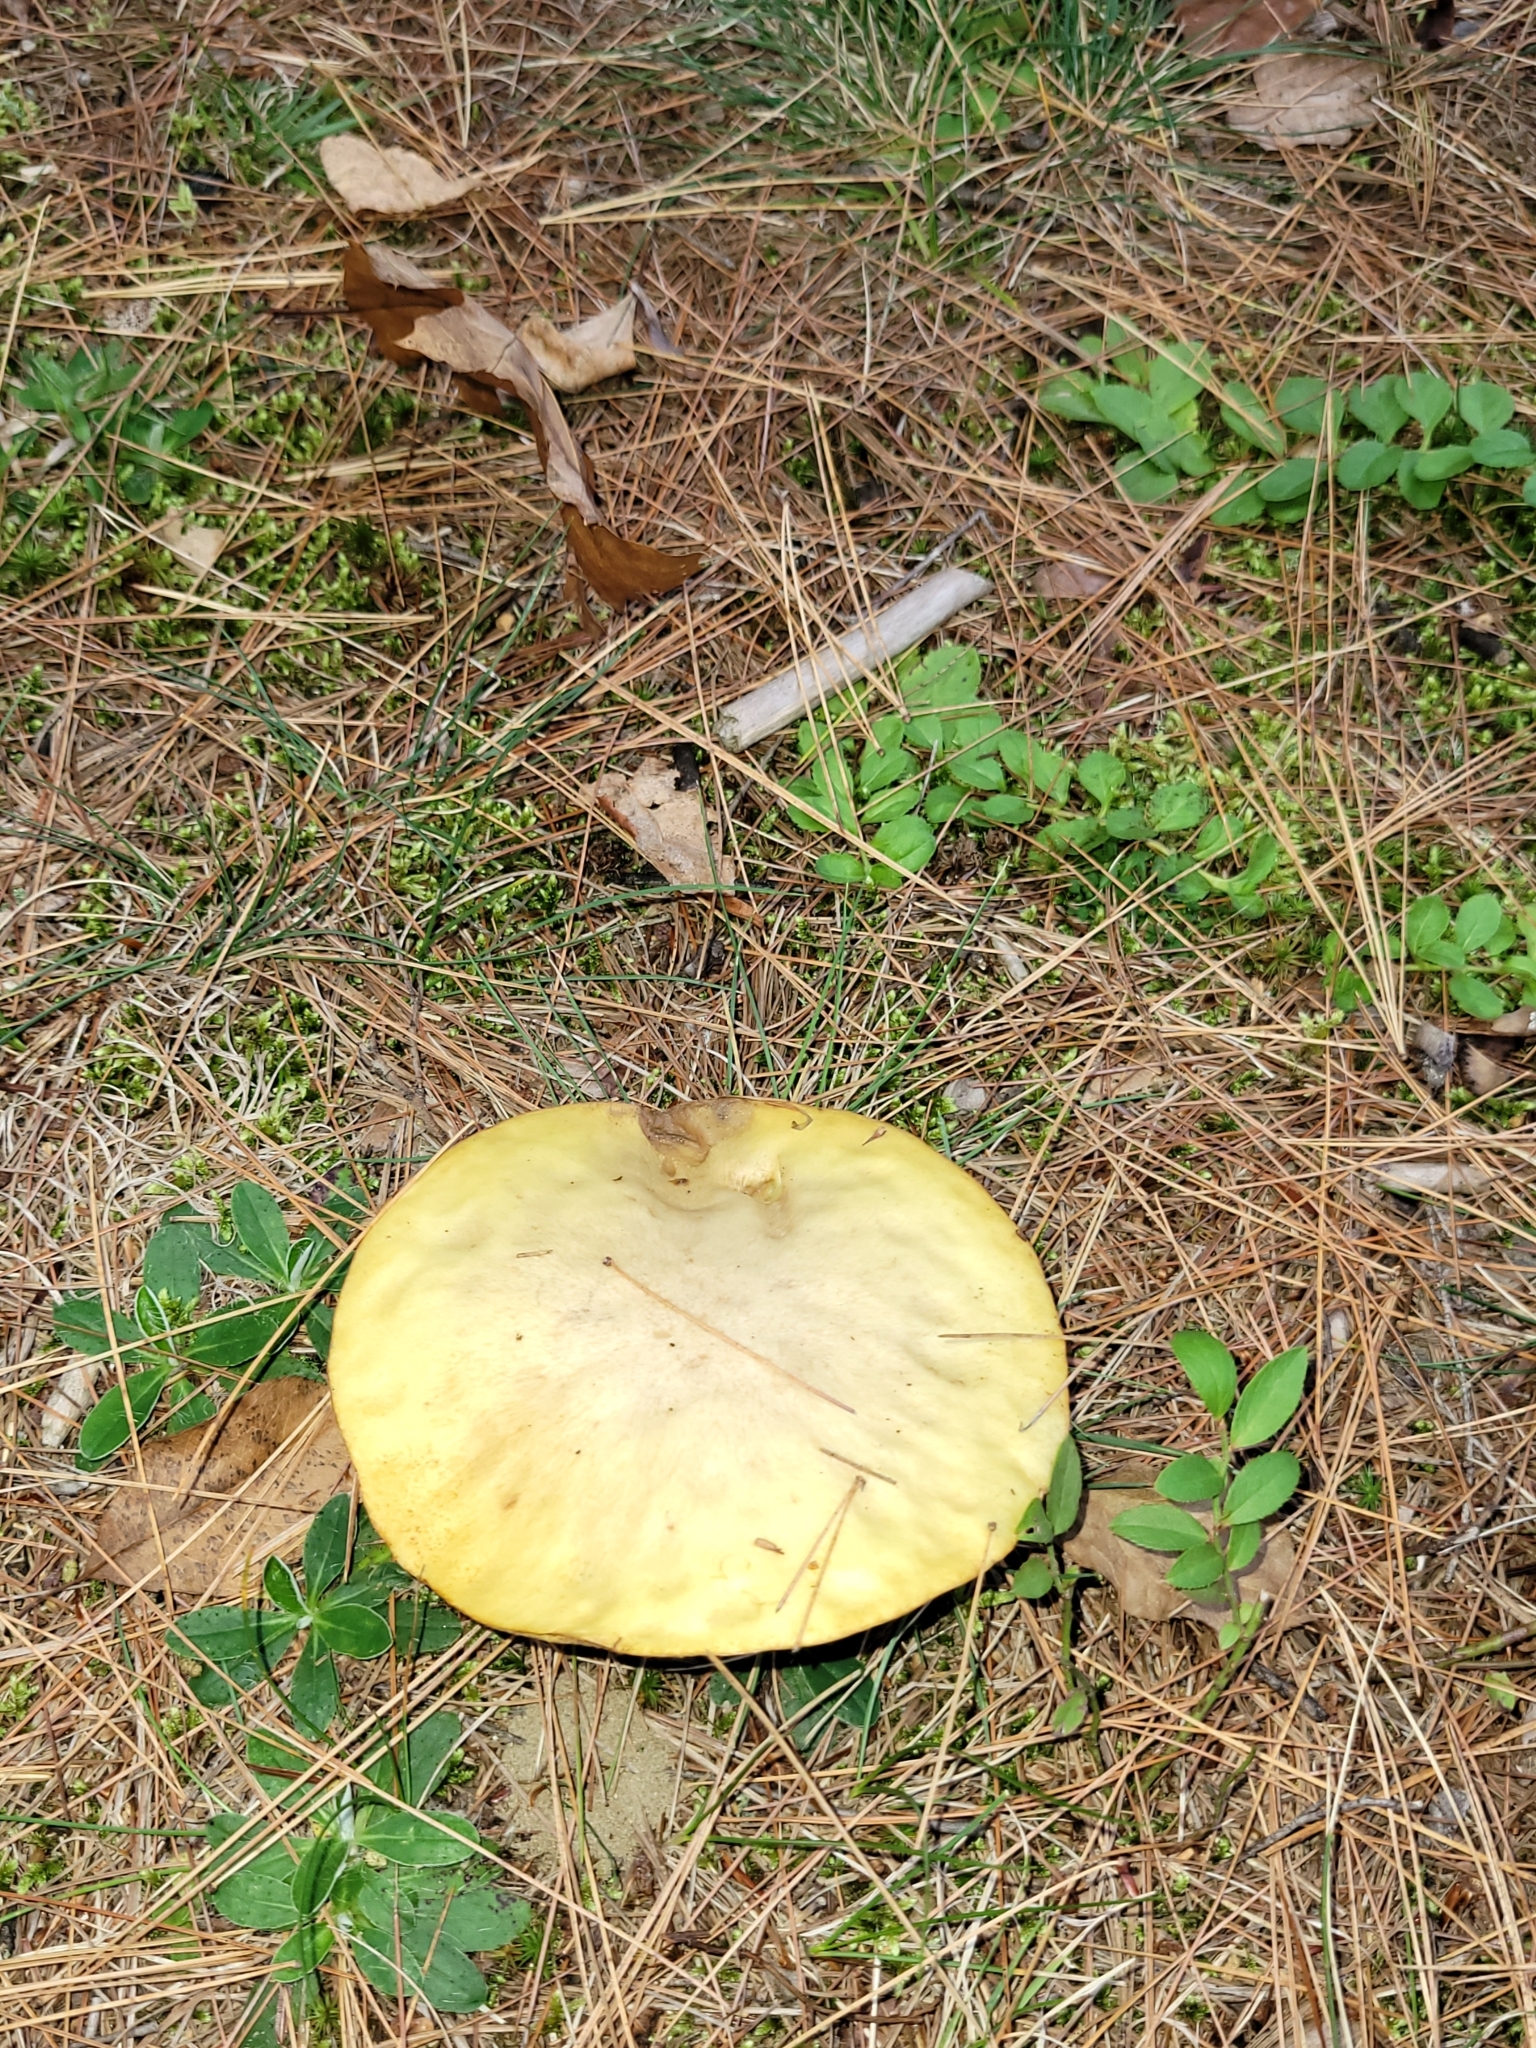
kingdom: Fungi
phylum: Basidiomycota
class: Agaricomycetes
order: Boletales
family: Boletaceae
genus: Retiboletus
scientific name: Retiboletus ornatipes
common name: Ornate-stalked bolete
